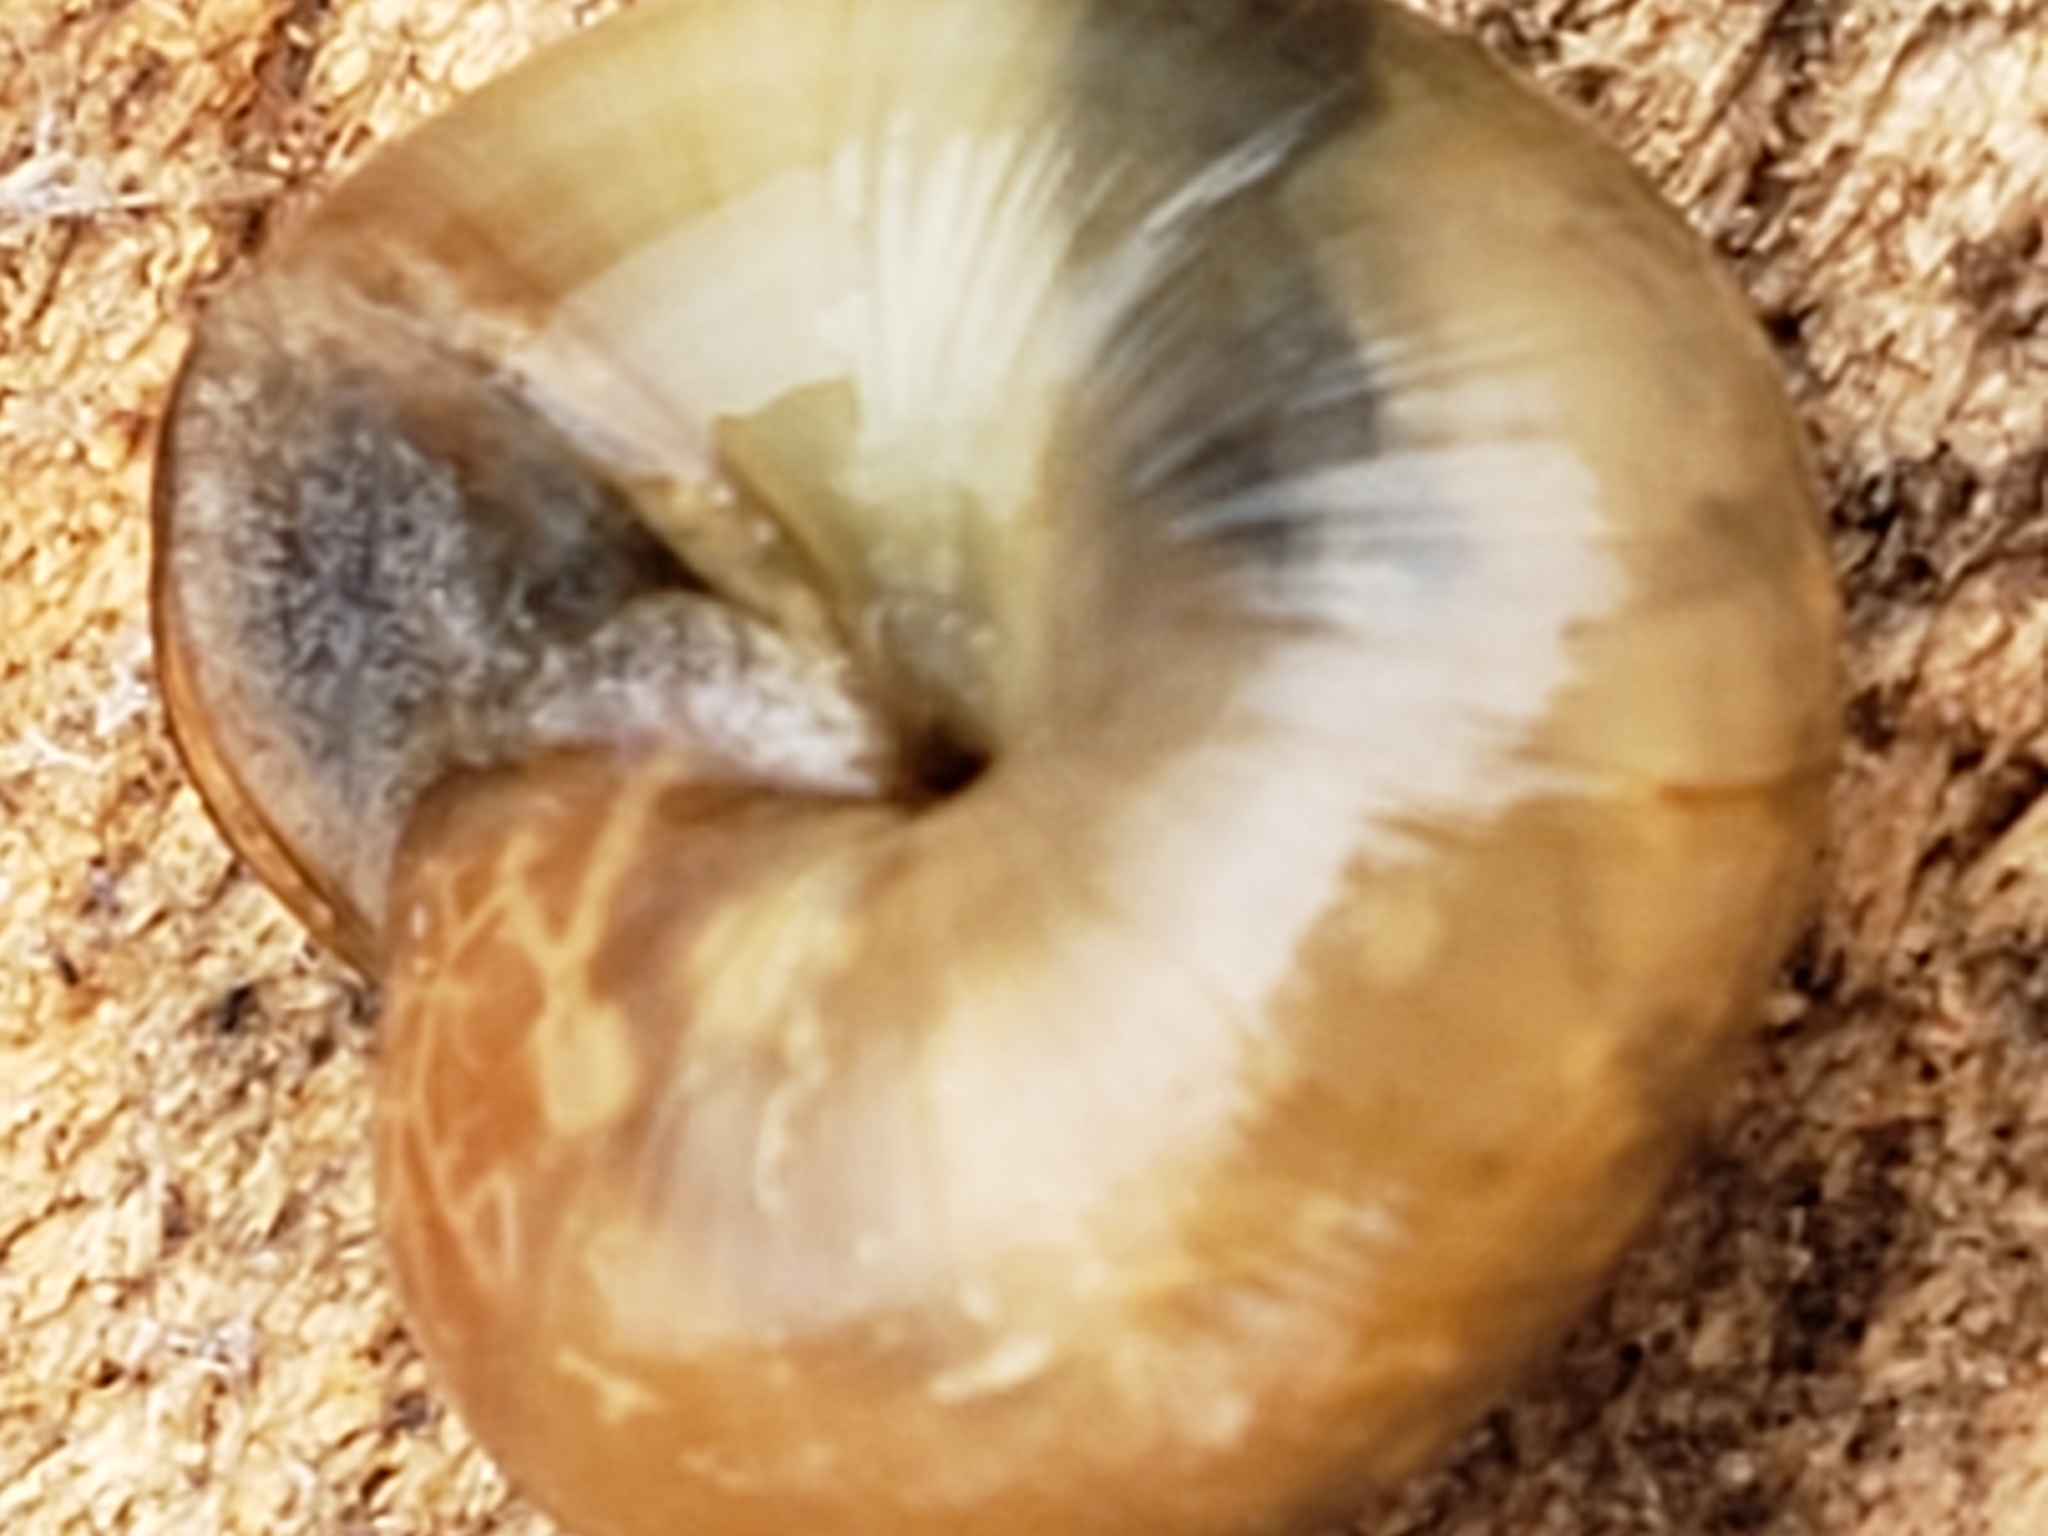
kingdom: Animalia
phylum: Mollusca
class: Gastropoda
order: Stylommatophora
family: Gastrodontidae
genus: Ventridens
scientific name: Ventridens ligera
